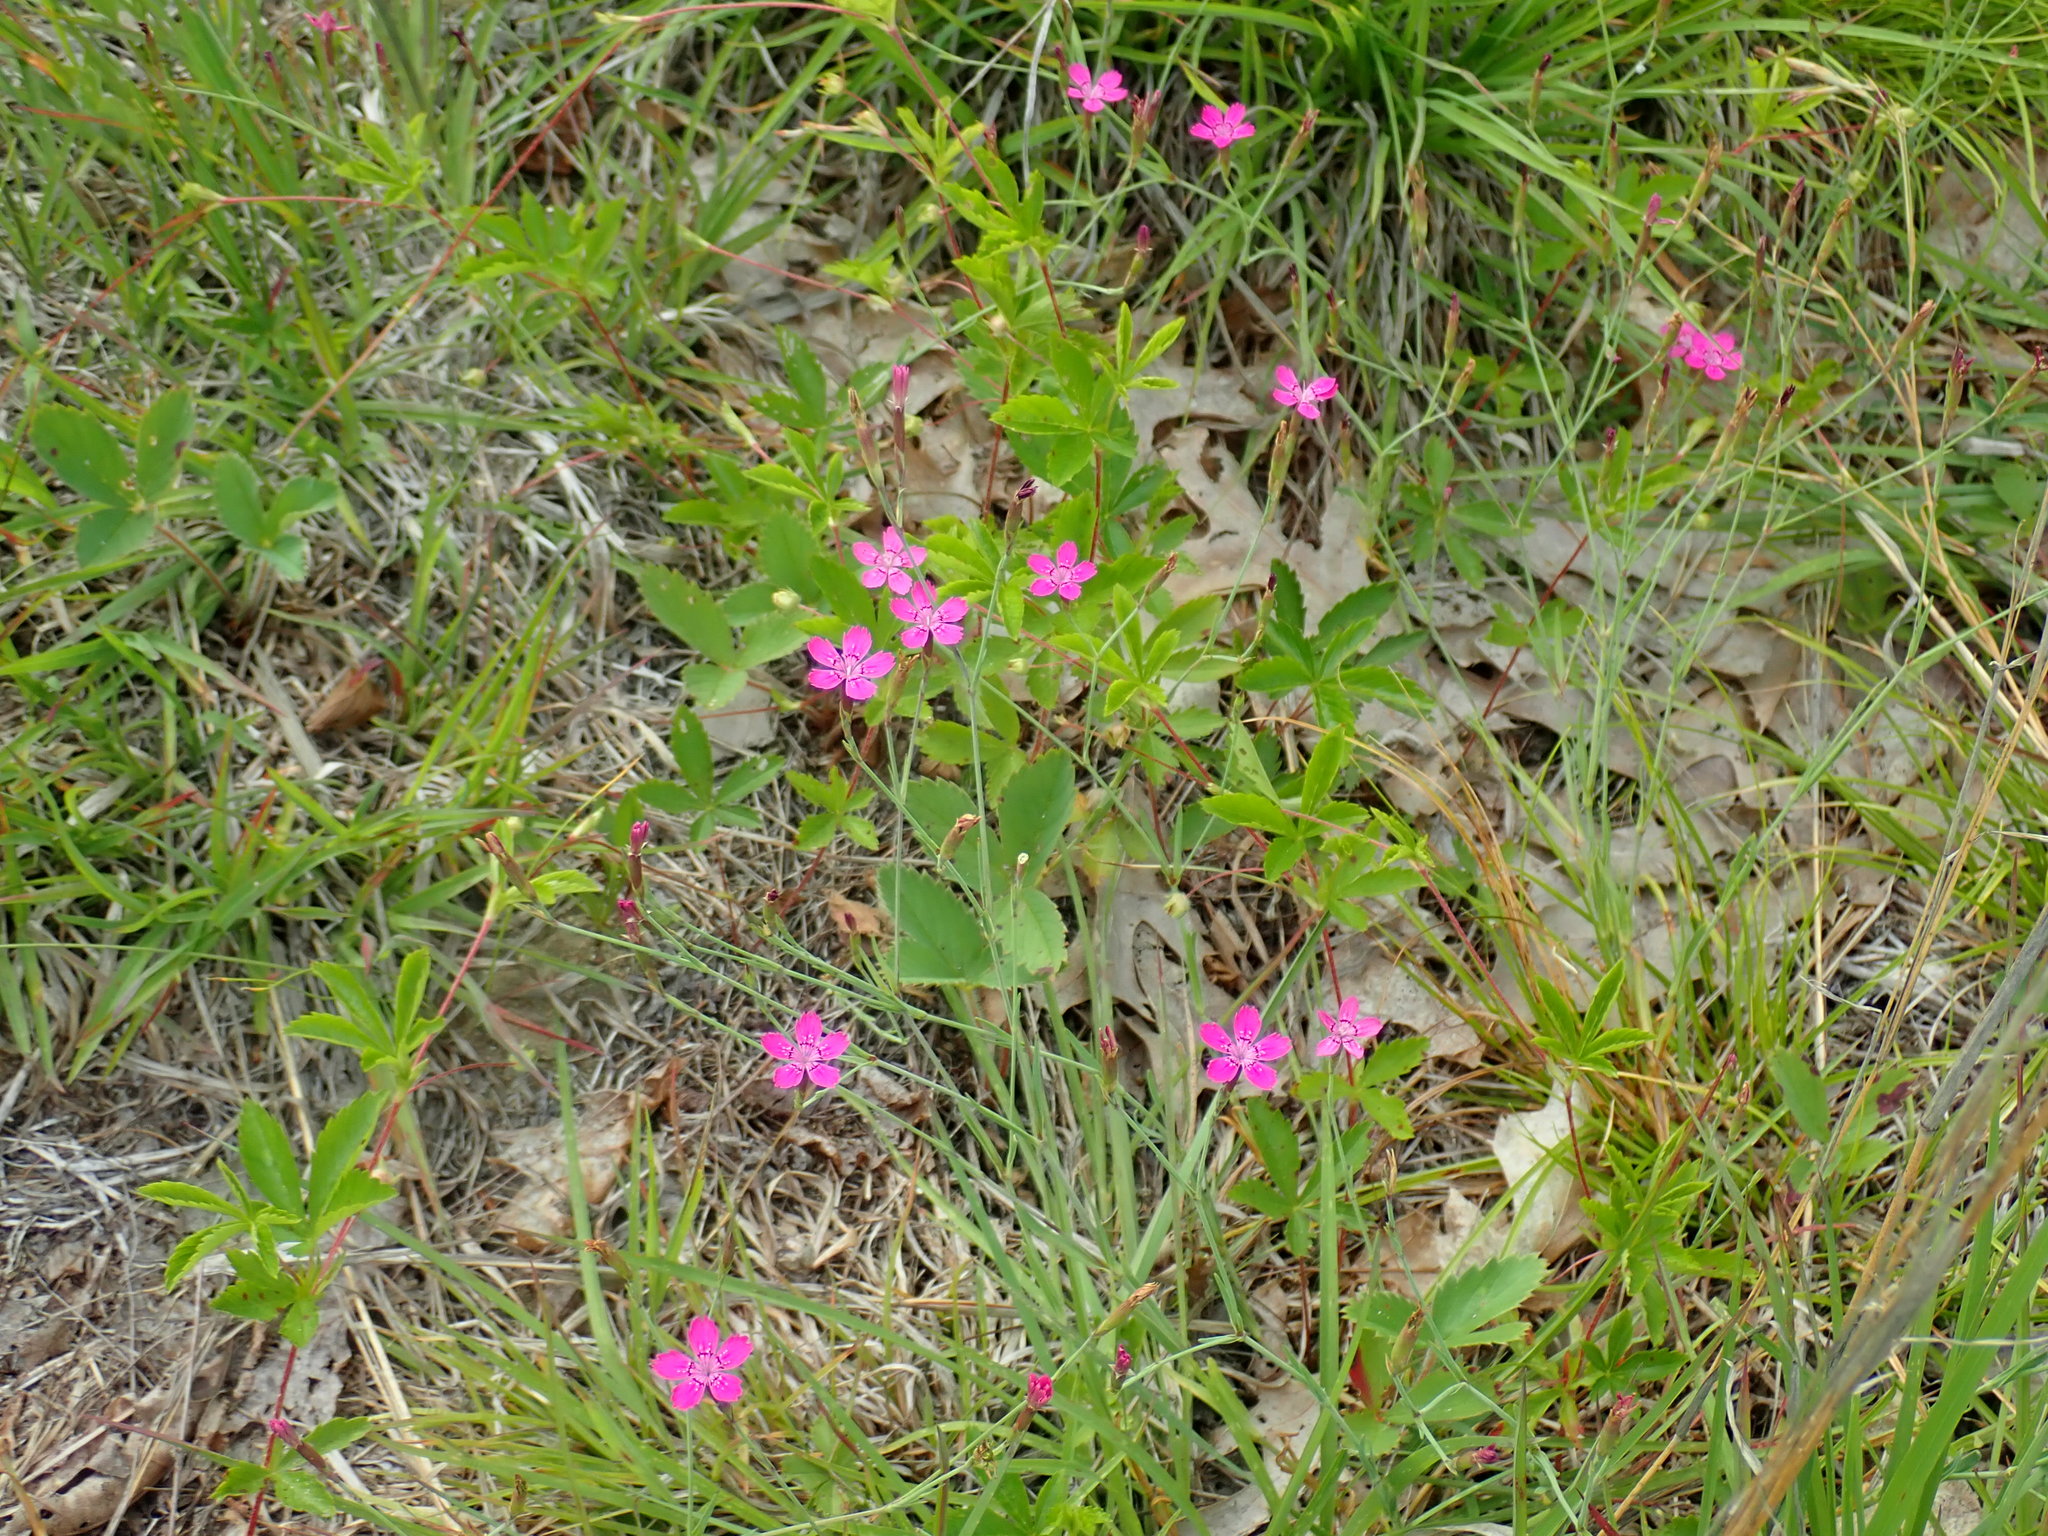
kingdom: Plantae
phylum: Tracheophyta
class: Magnoliopsida
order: Caryophyllales
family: Caryophyllaceae
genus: Dianthus
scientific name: Dianthus deltoides
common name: Maiden pink
